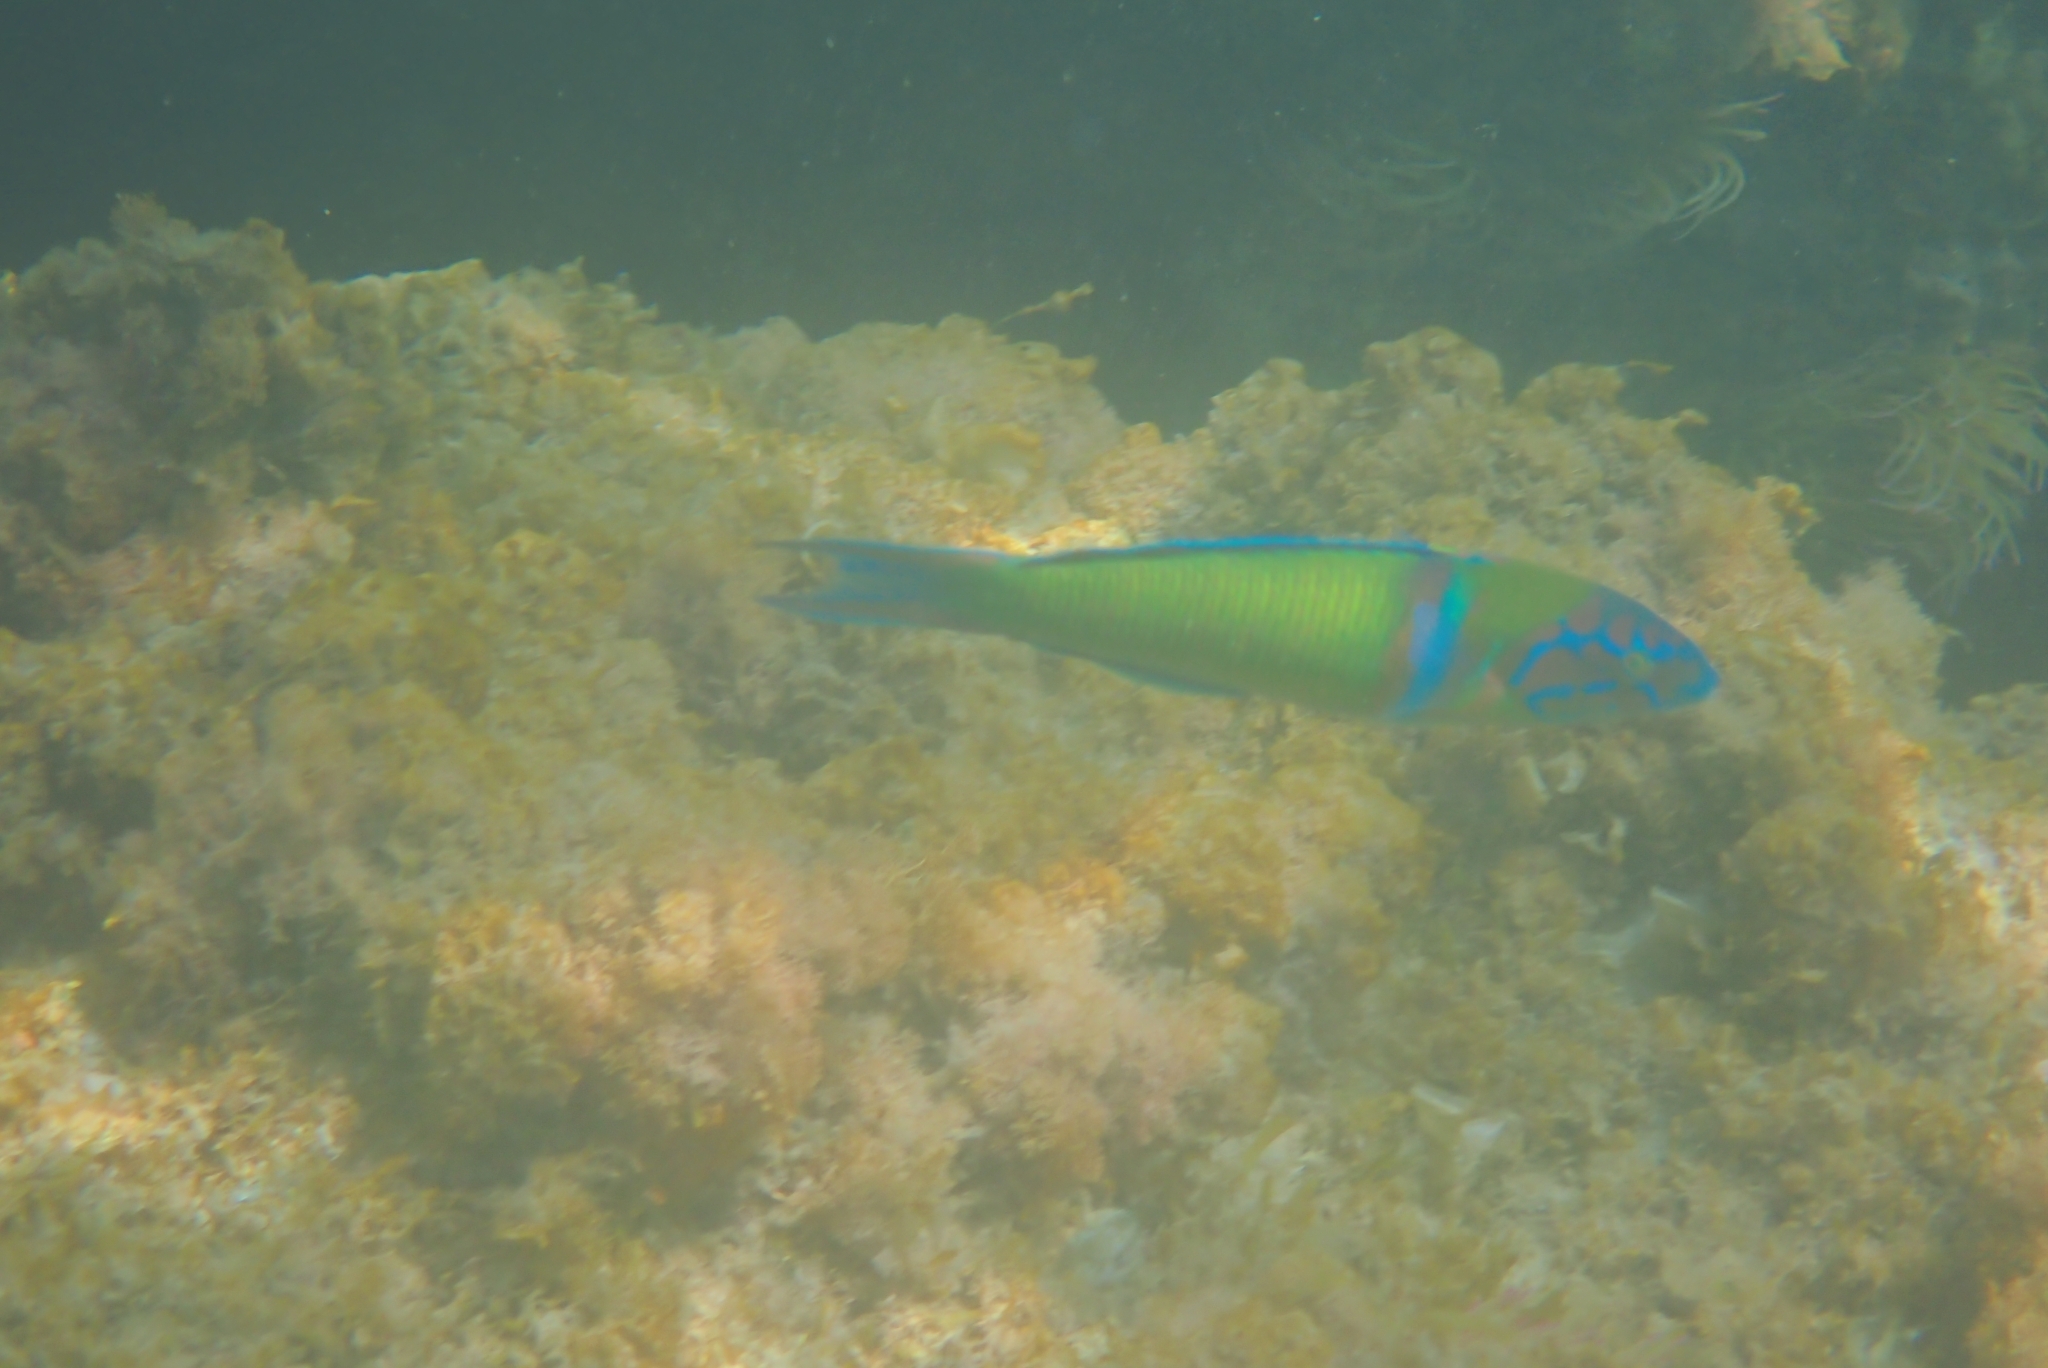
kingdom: Animalia
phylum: Chordata
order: Perciformes
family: Labridae
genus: Thalassoma
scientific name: Thalassoma pavo
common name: Ornate wrasse
